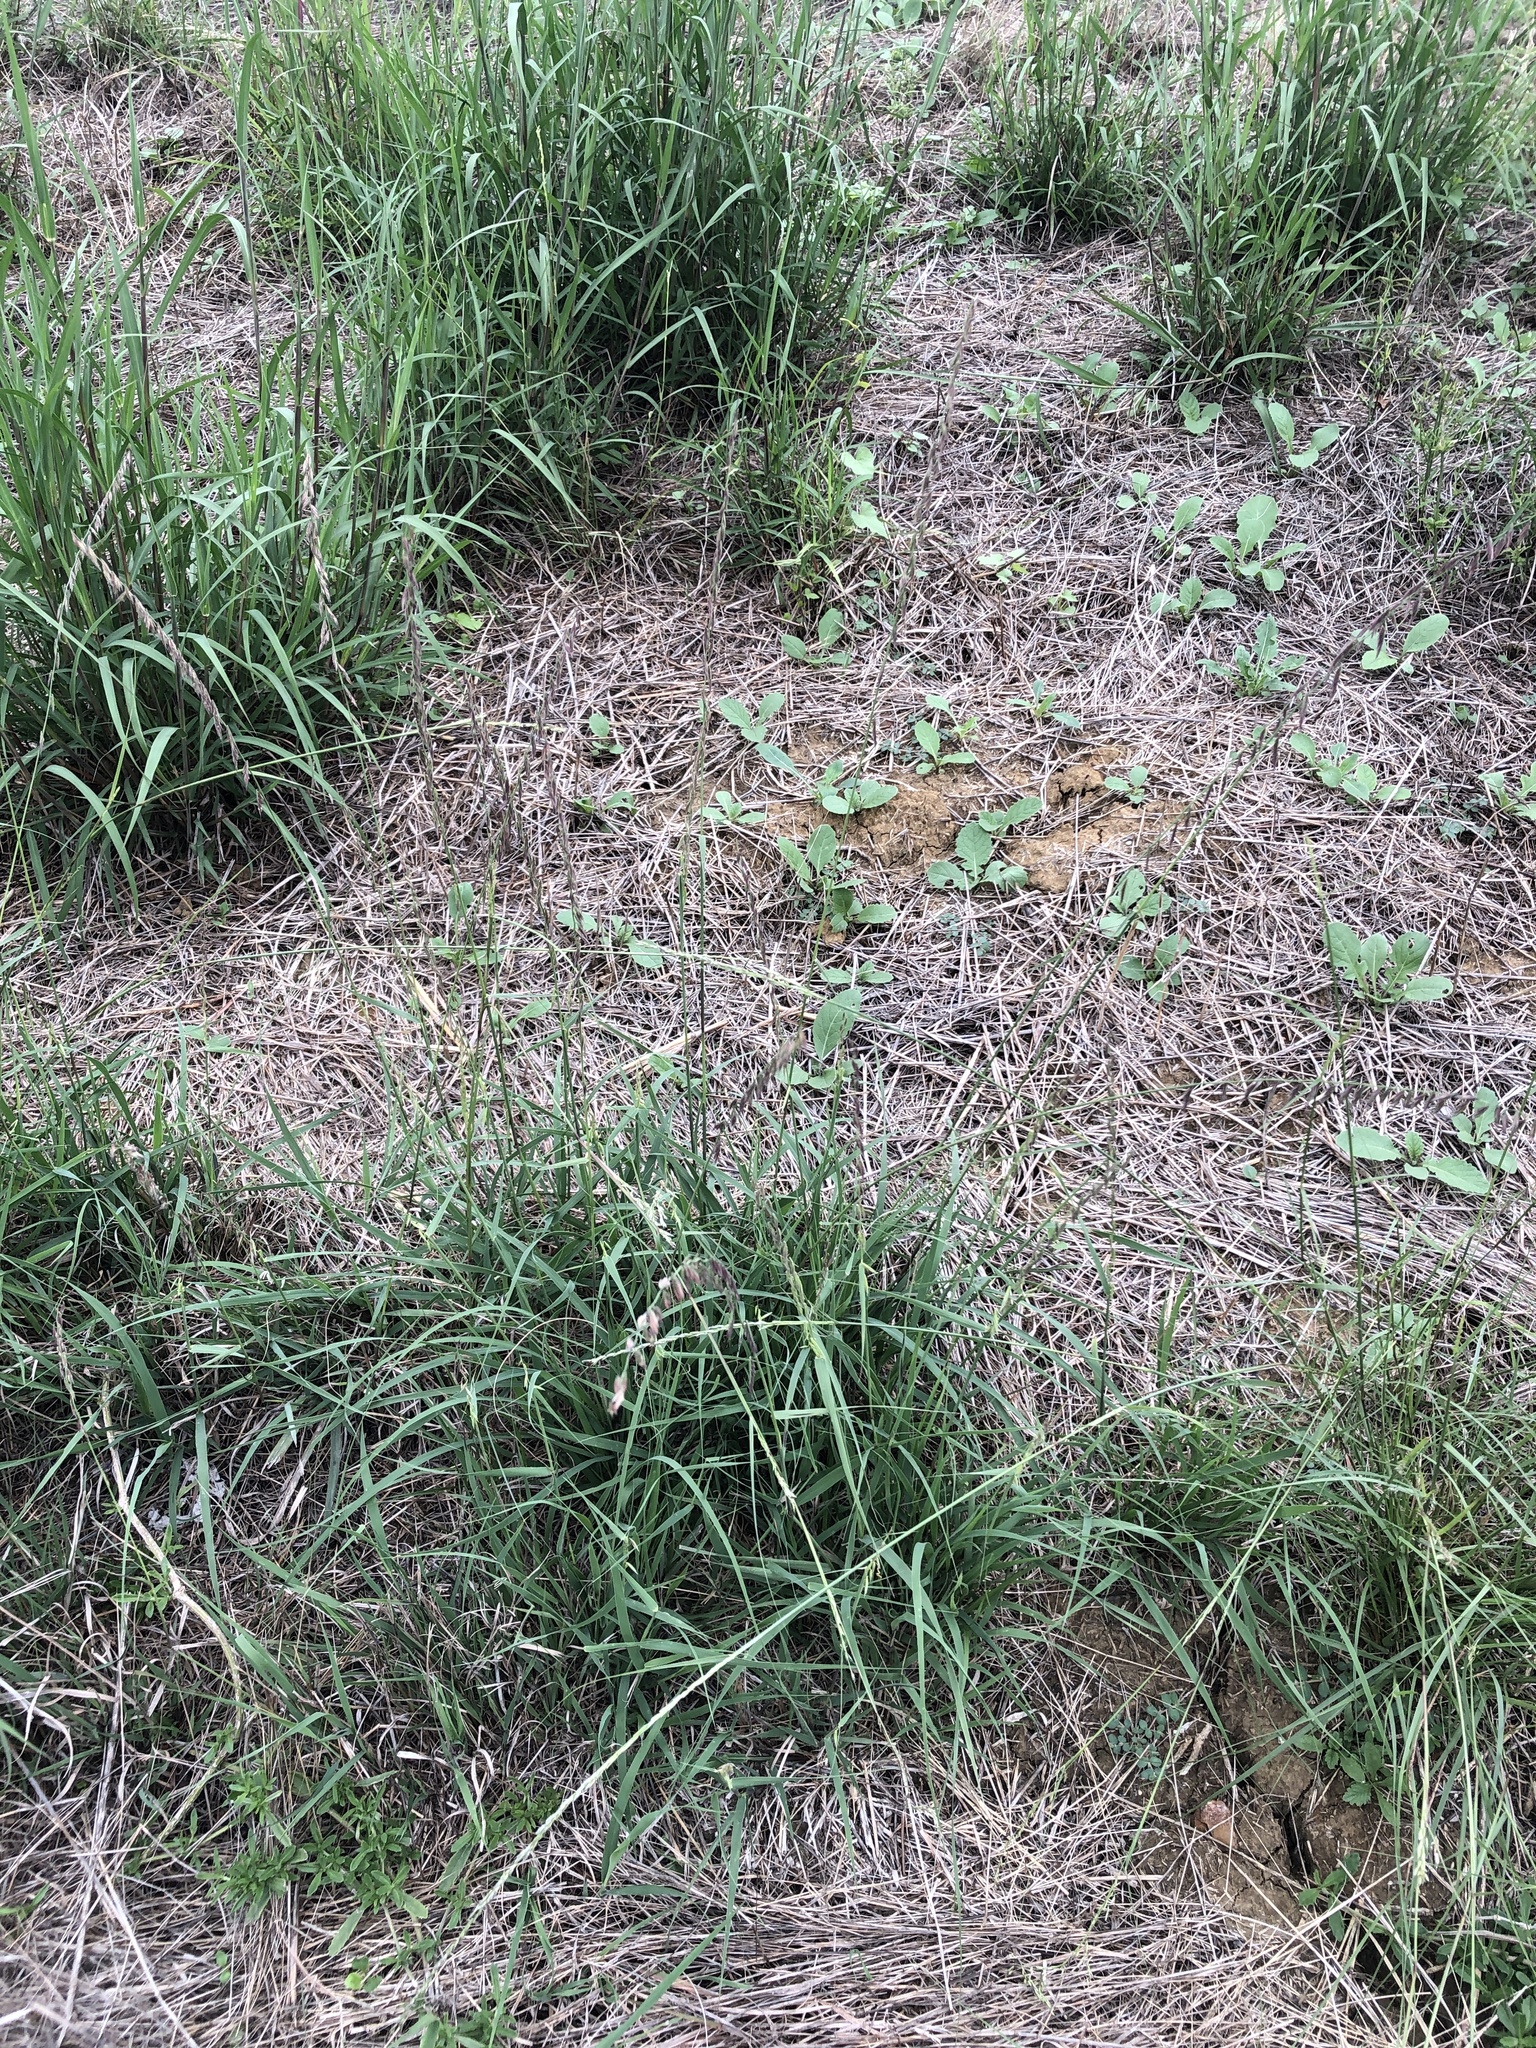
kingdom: Plantae
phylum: Tracheophyta
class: Liliopsida
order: Poales
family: Poaceae
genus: Bouteloua
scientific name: Bouteloua curtipendula
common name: Side-oats grama
